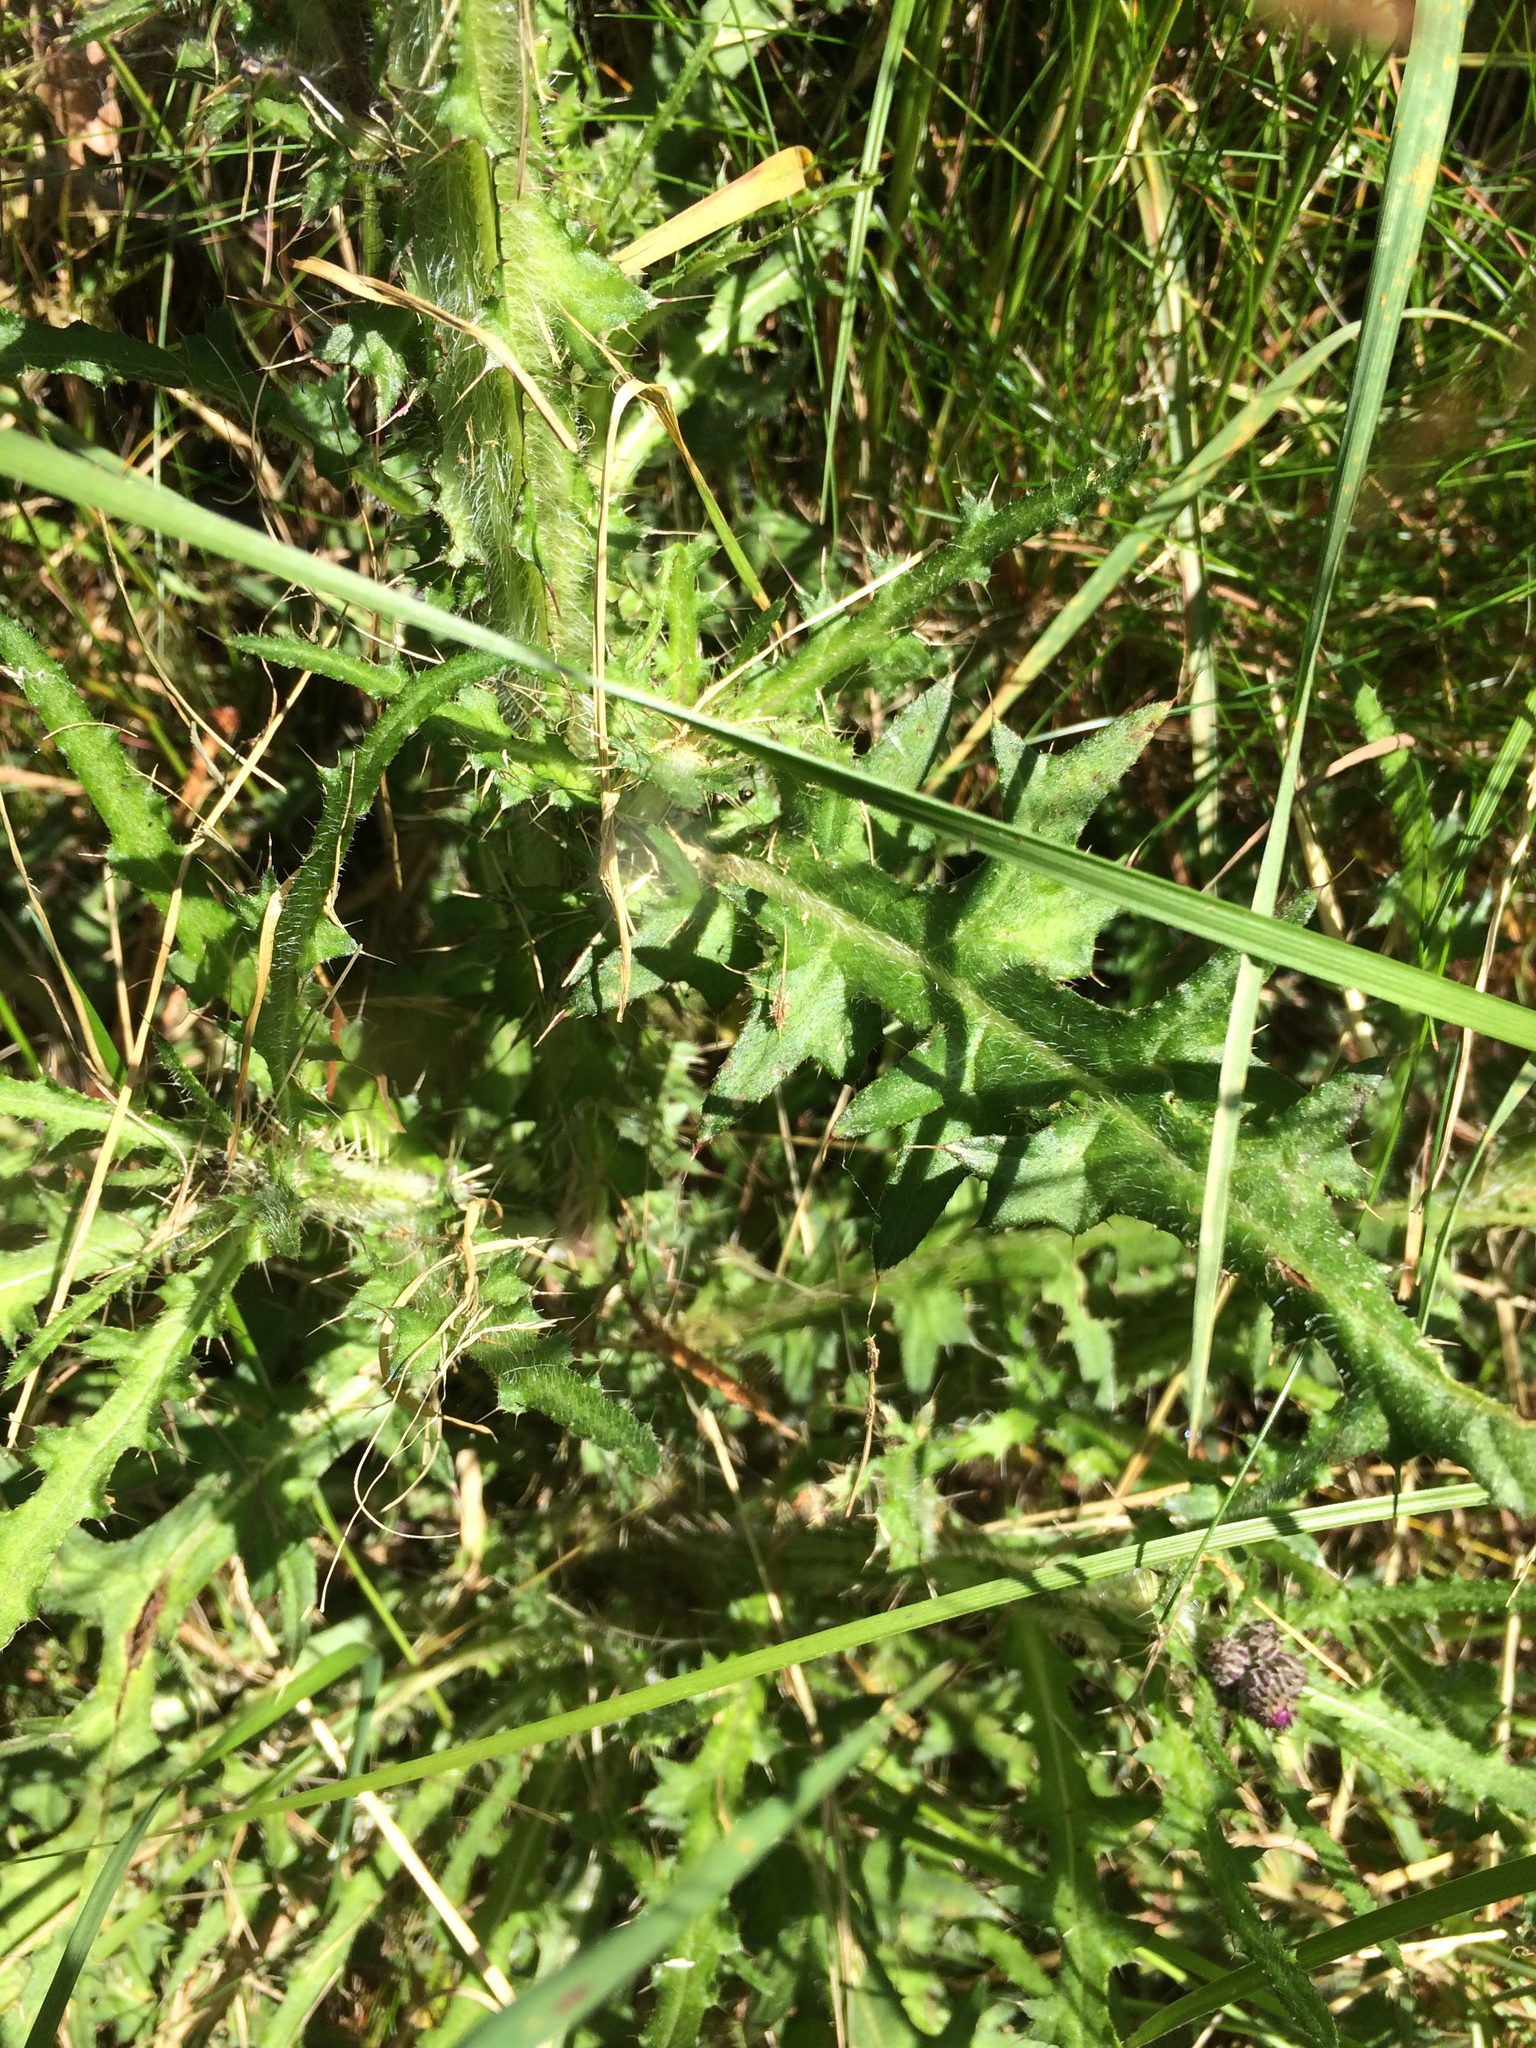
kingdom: Plantae
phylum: Tracheophyta
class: Magnoliopsida
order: Asterales
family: Asteraceae
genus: Cirsium
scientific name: Cirsium palustre
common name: Marsh thistle
